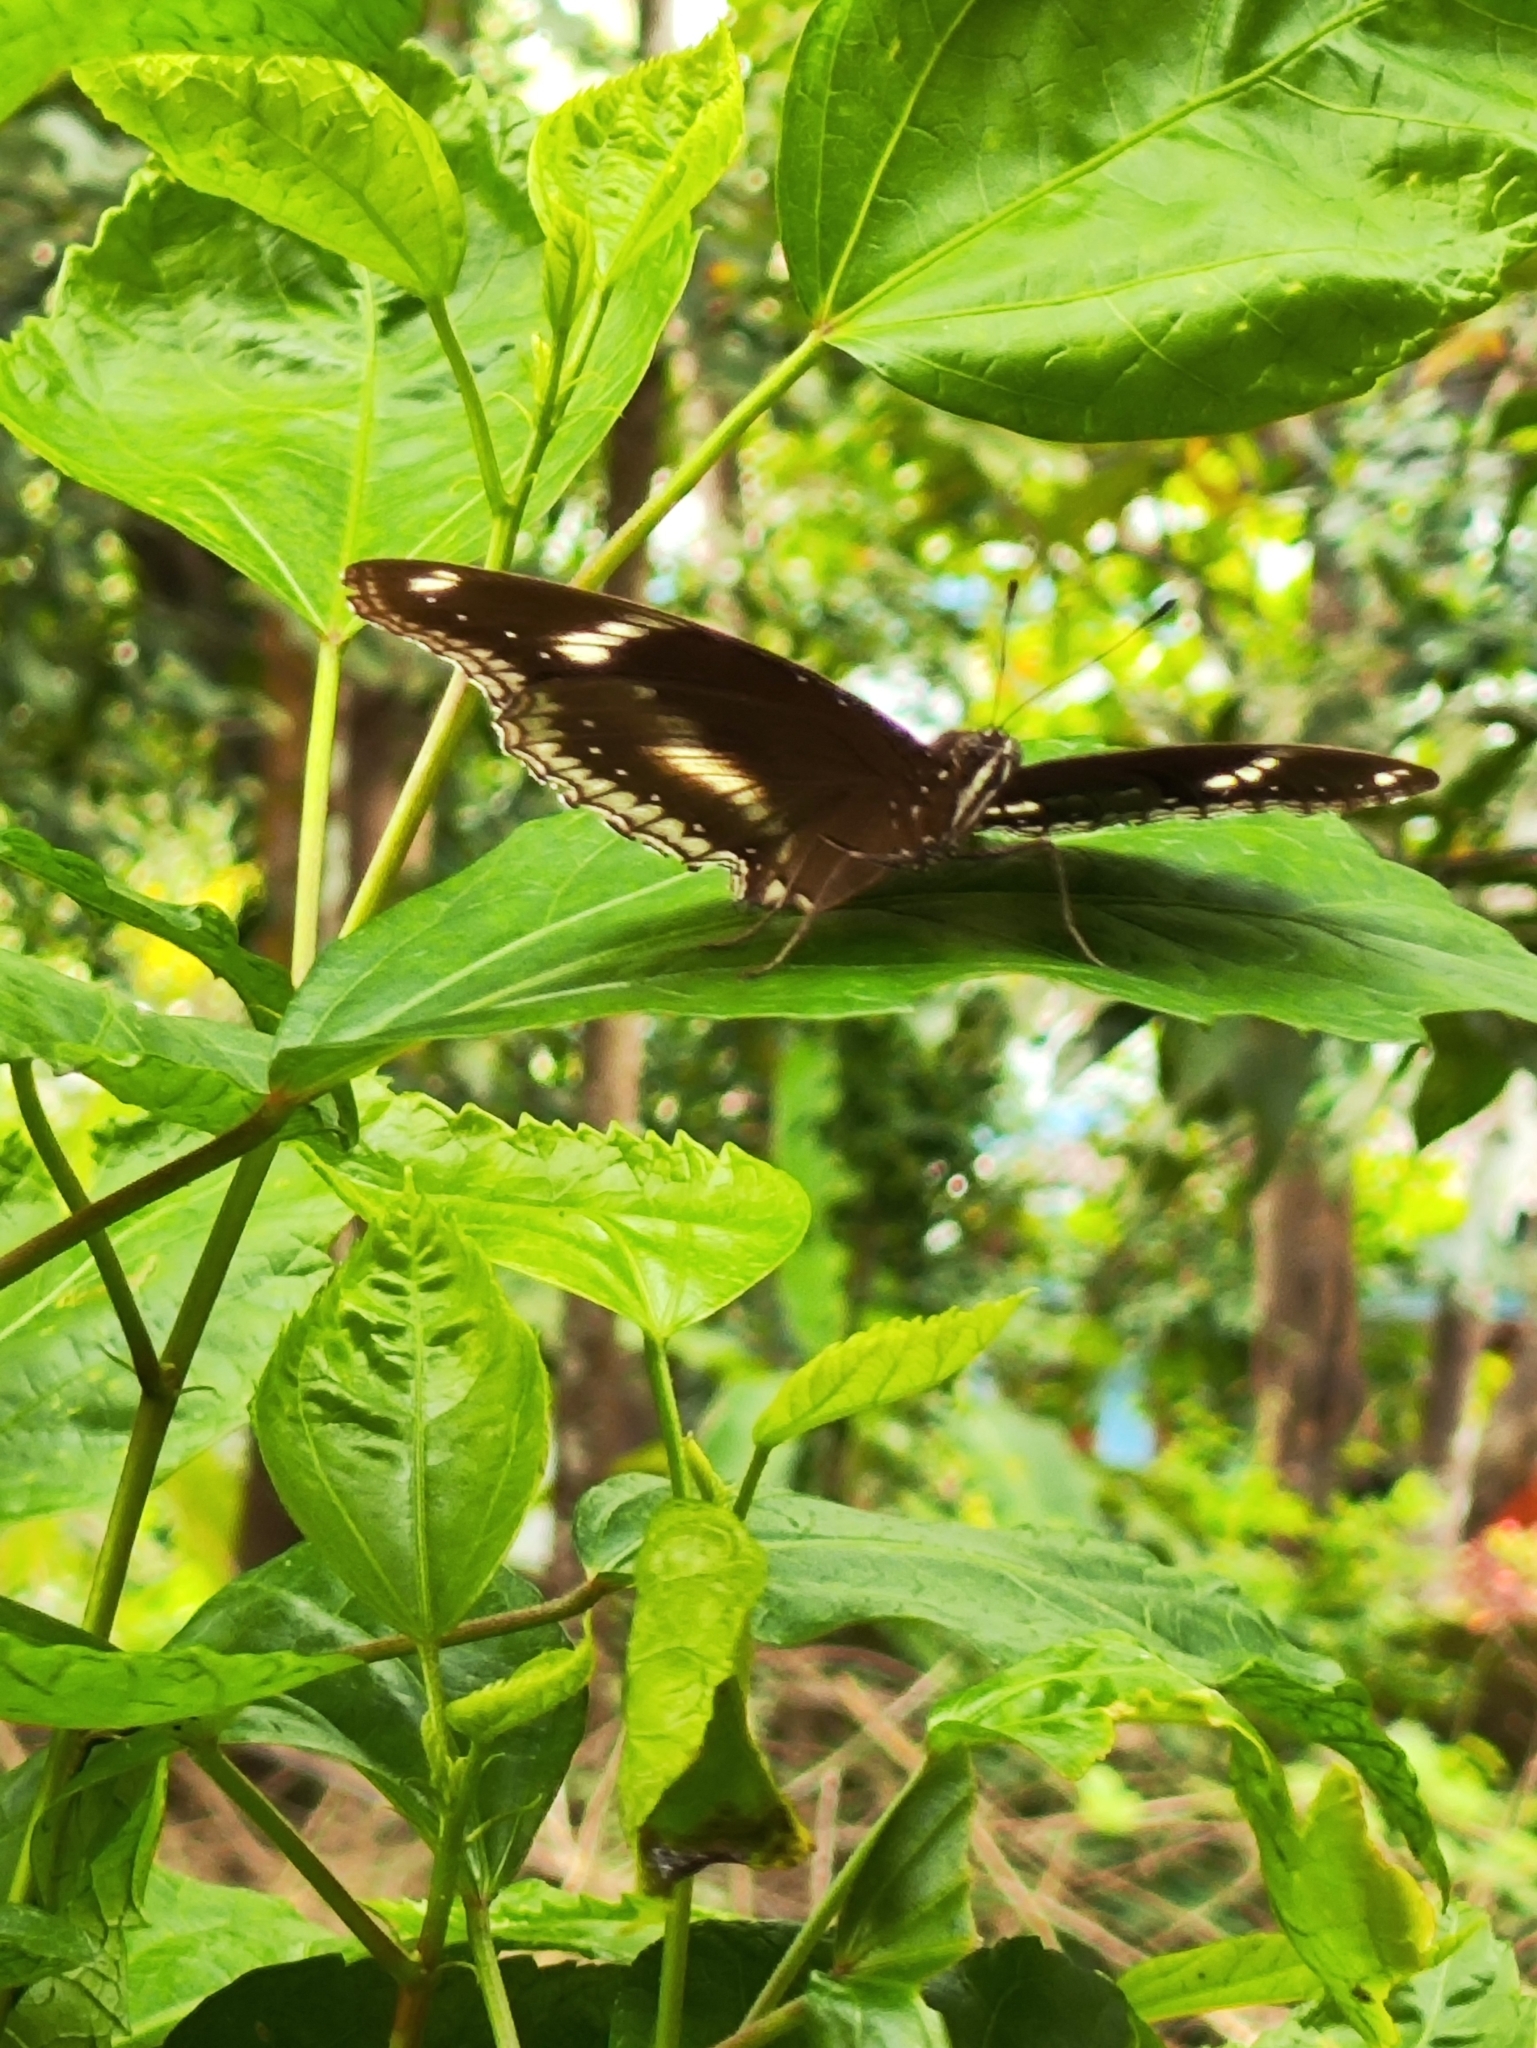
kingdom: Animalia
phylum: Arthropoda
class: Insecta
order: Lepidoptera
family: Nymphalidae
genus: Hypolimnas
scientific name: Hypolimnas bolina
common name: Great eggfly
